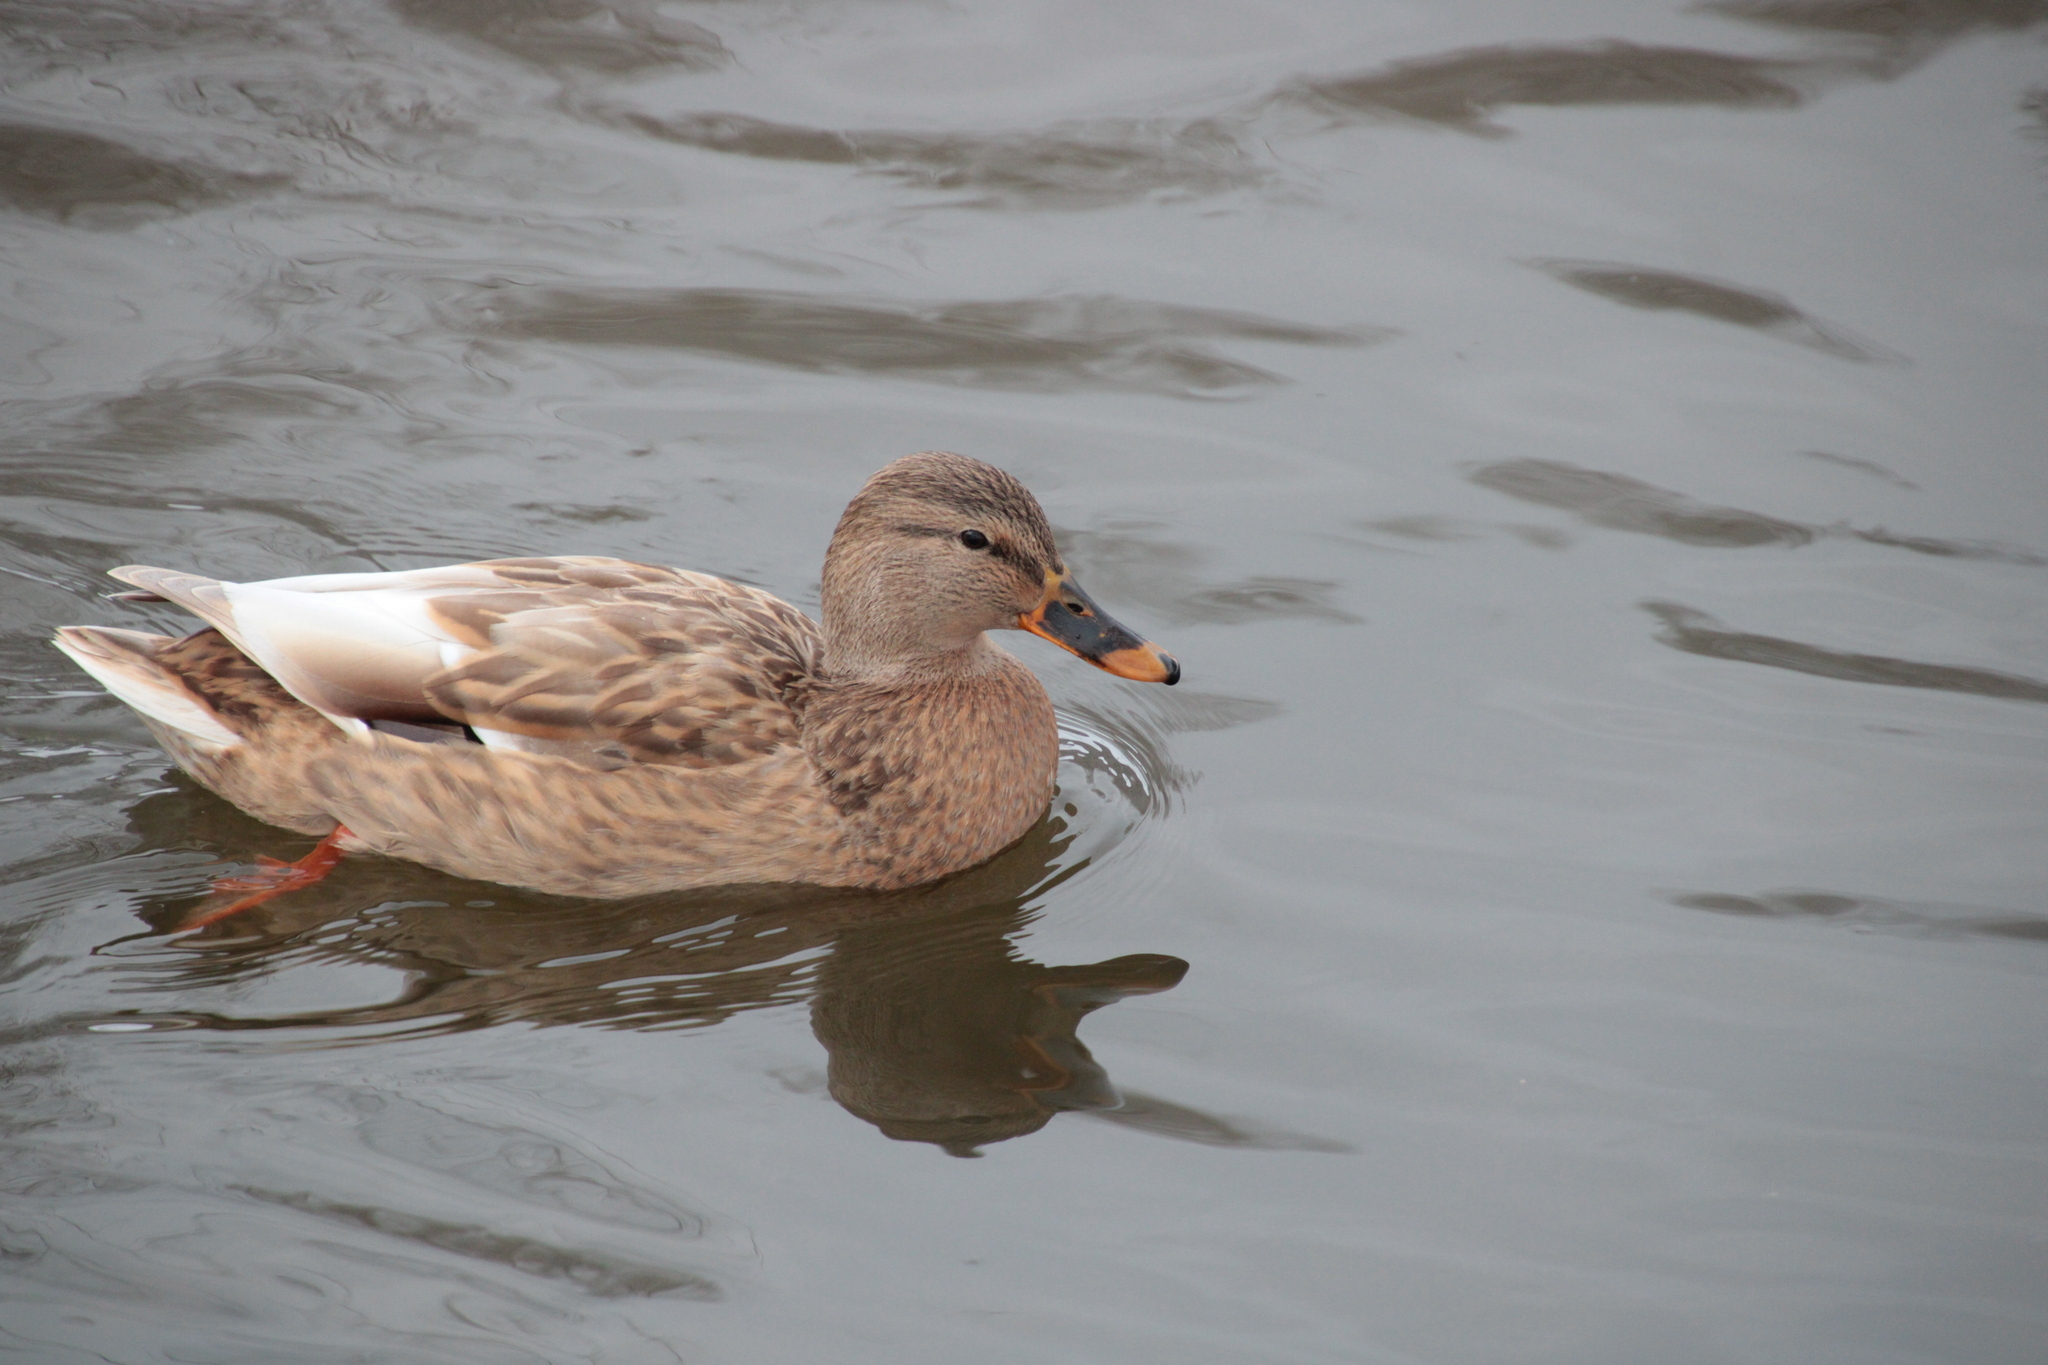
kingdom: Animalia
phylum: Chordata
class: Aves
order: Anseriformes
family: Anatidae
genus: Anas
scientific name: Anas platyrhynchos
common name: Mallard
